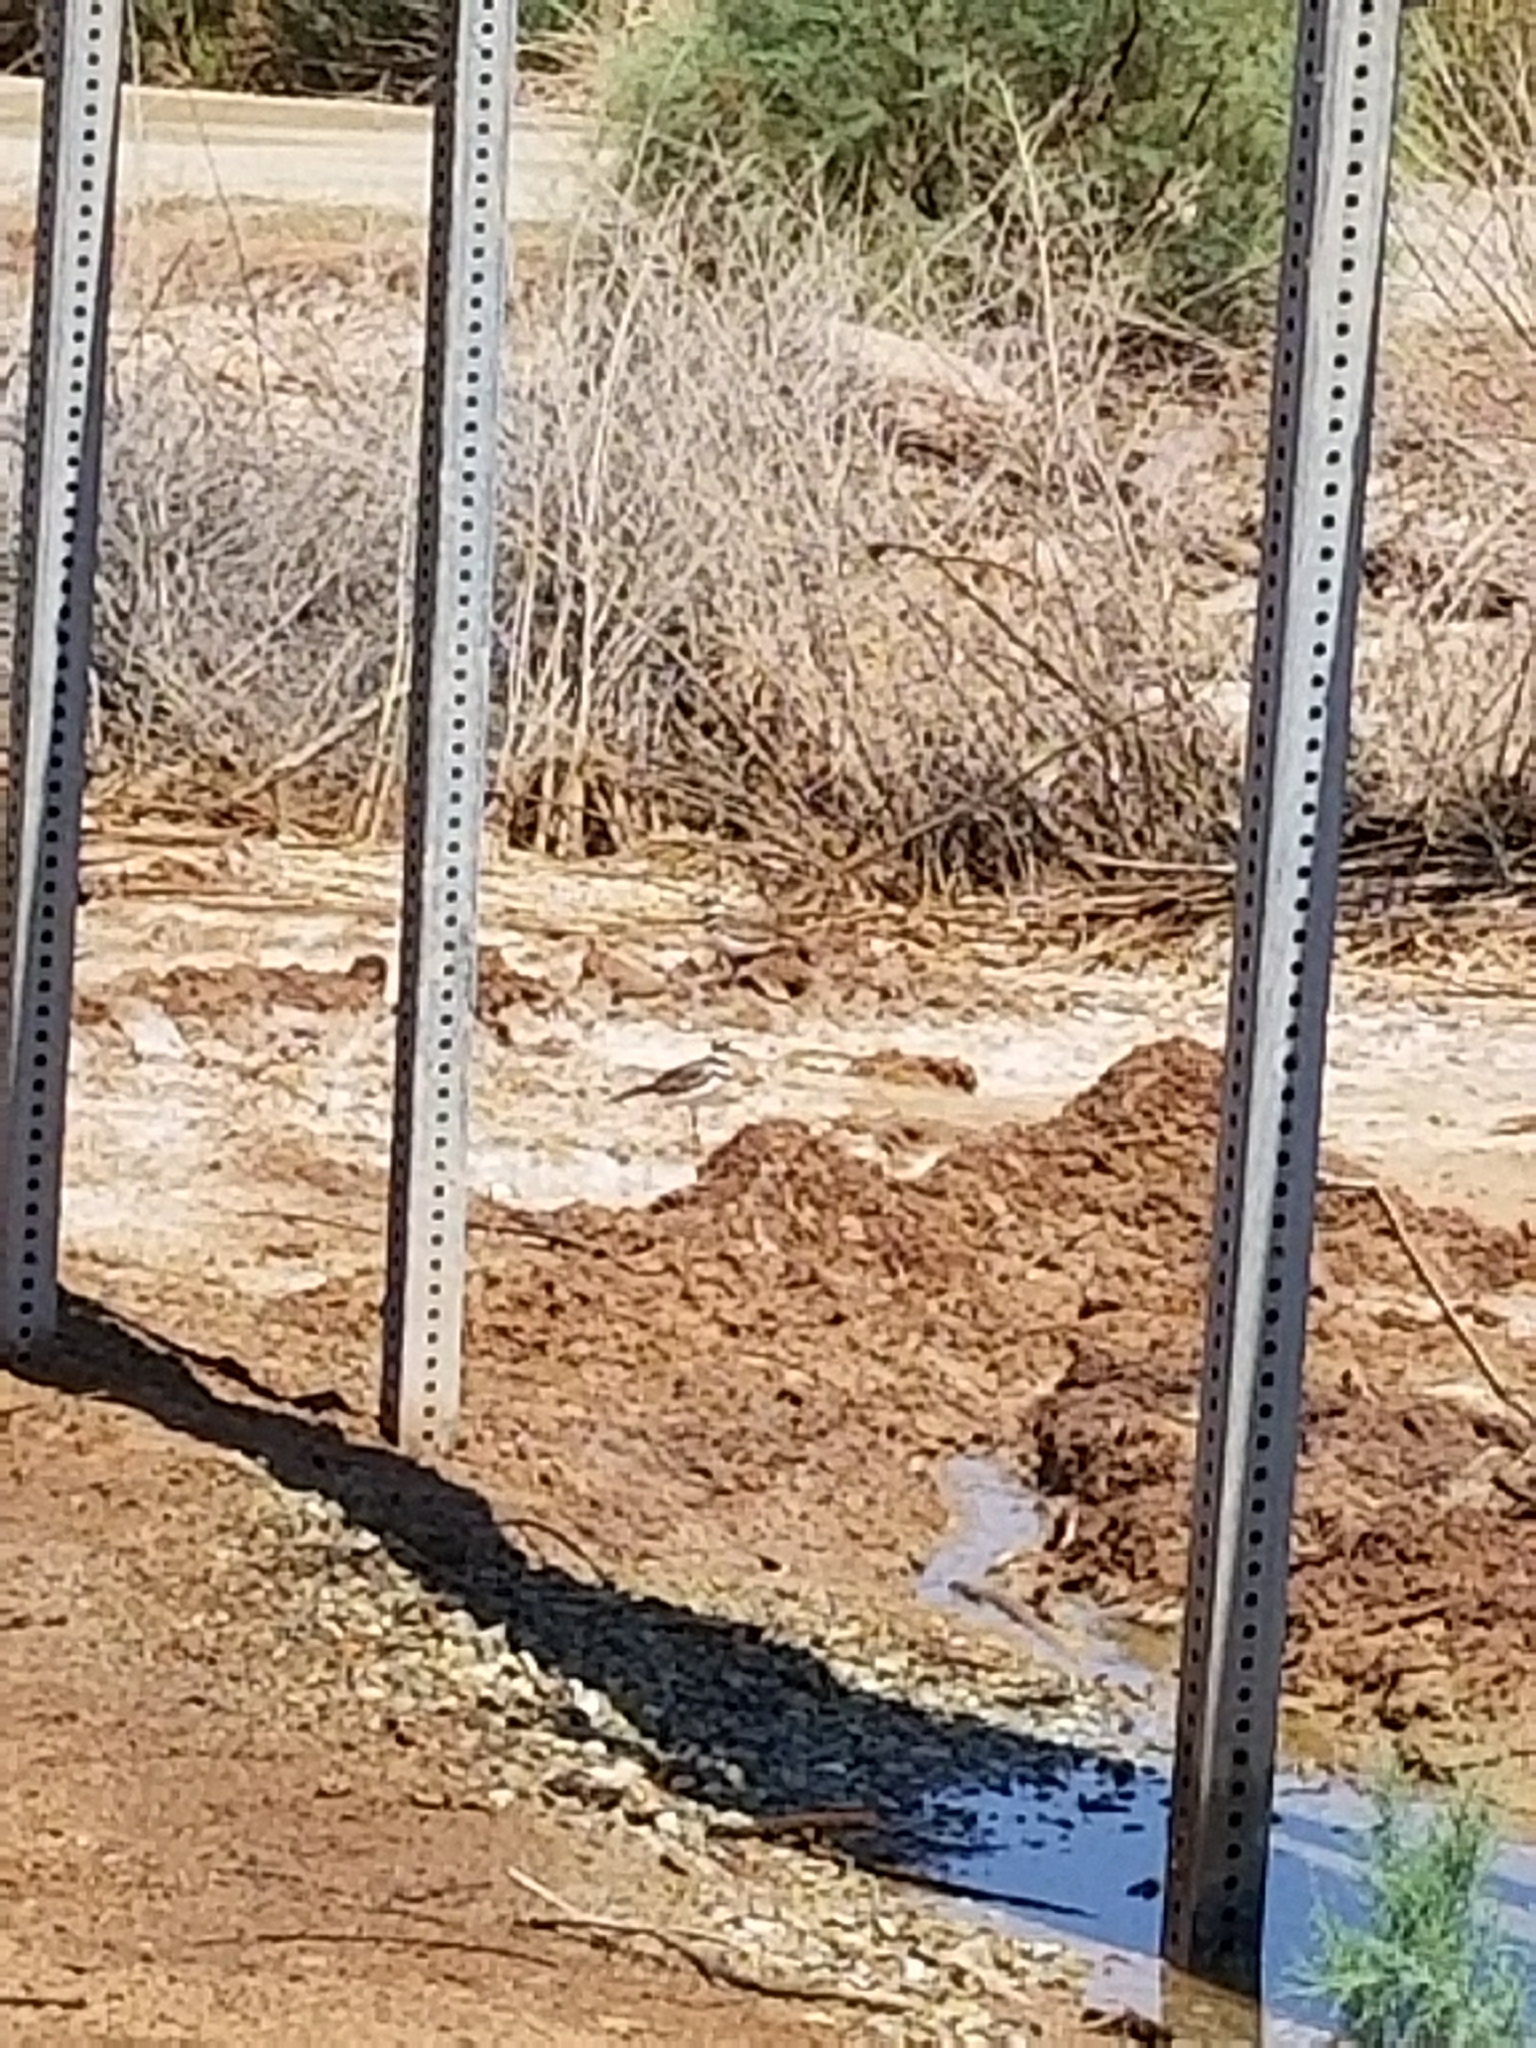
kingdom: Animalia
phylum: Chordata
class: Aves
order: Charadriiformes
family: Charadriidae
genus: Charadrius
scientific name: Charadrius vociferus
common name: Killdeer
